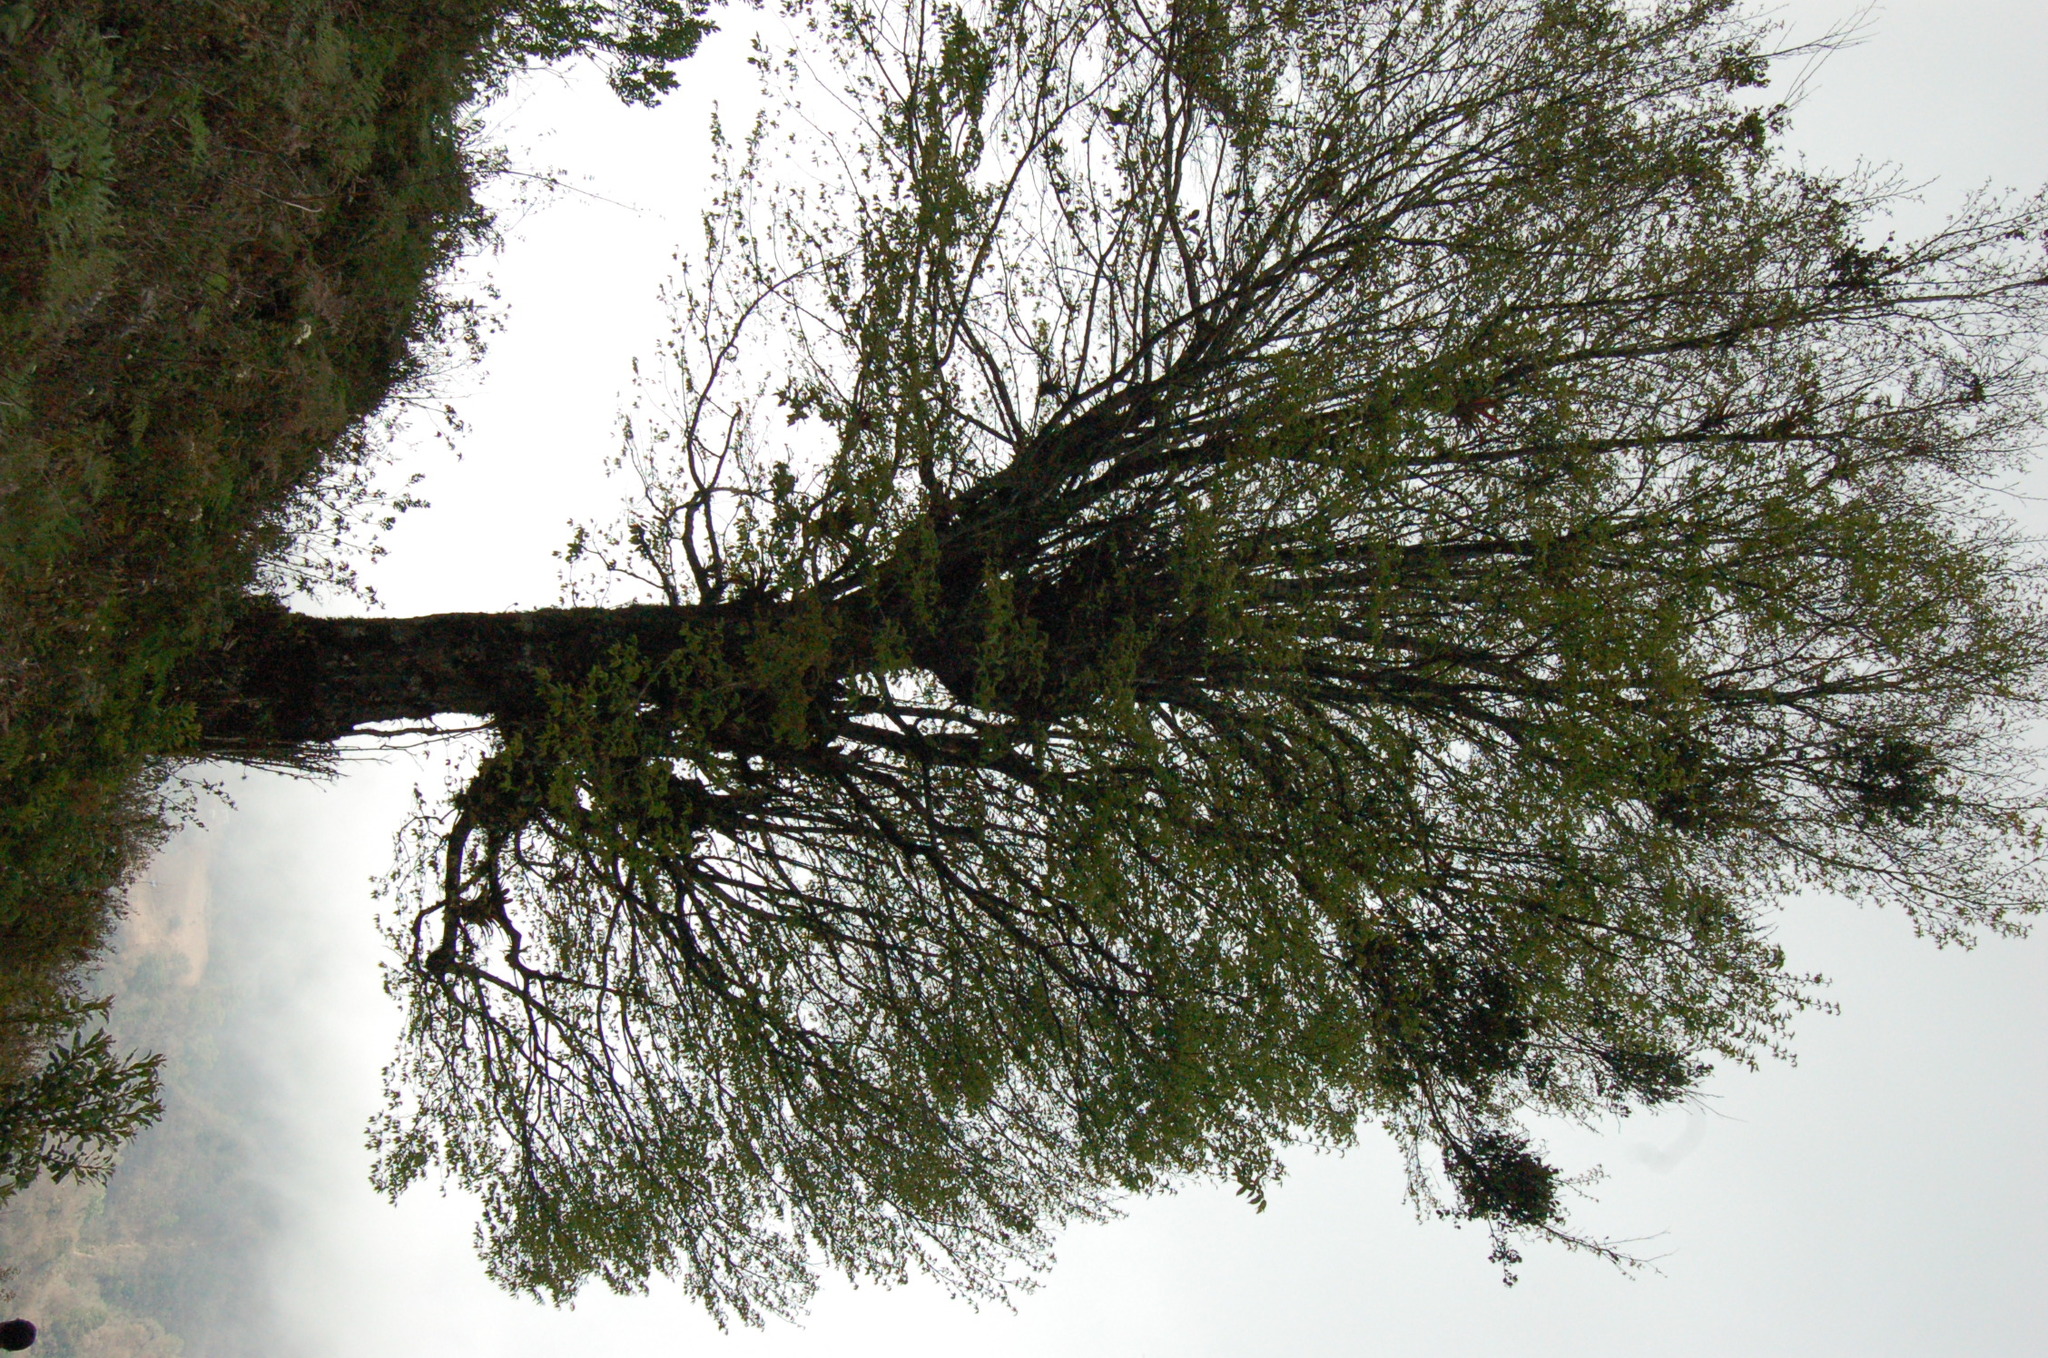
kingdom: Plantae
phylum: Tracheophyta
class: Magnoliopsida
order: Fagales
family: Betulaceae
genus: Ostrya
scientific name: Ostrya virginiana
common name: Ironwood
